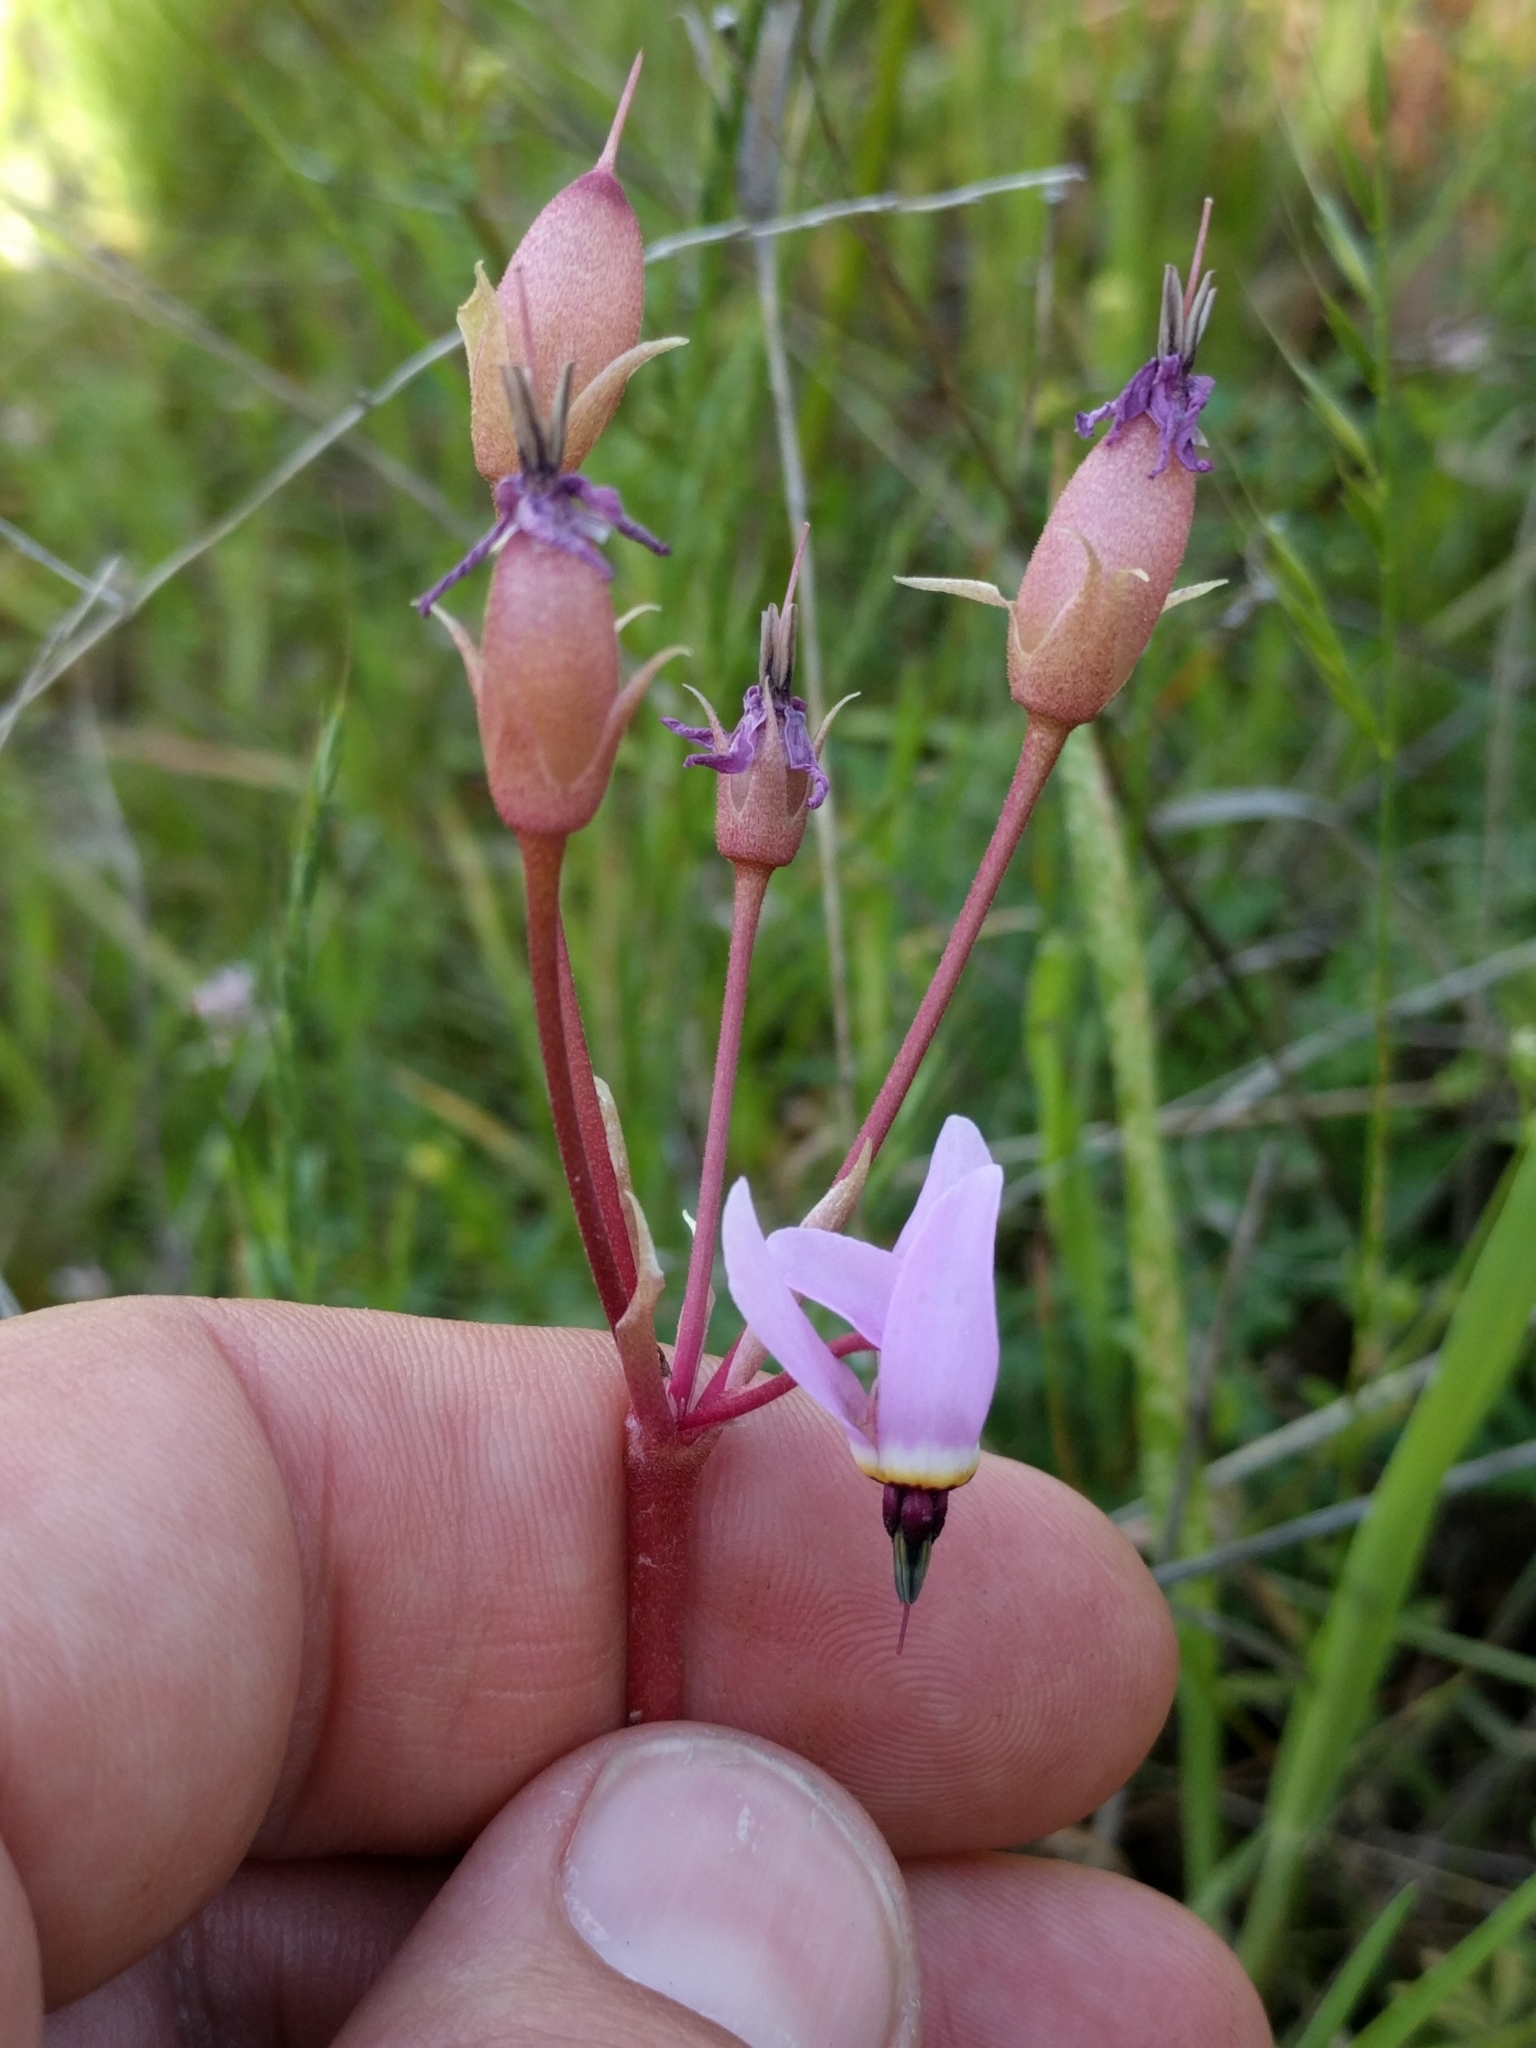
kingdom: Plantae
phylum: Tracheophyta
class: Magnoliopsida
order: Ericales
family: Primulaceae
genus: Dodecatheon
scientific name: Dodecatheon hendersonii
